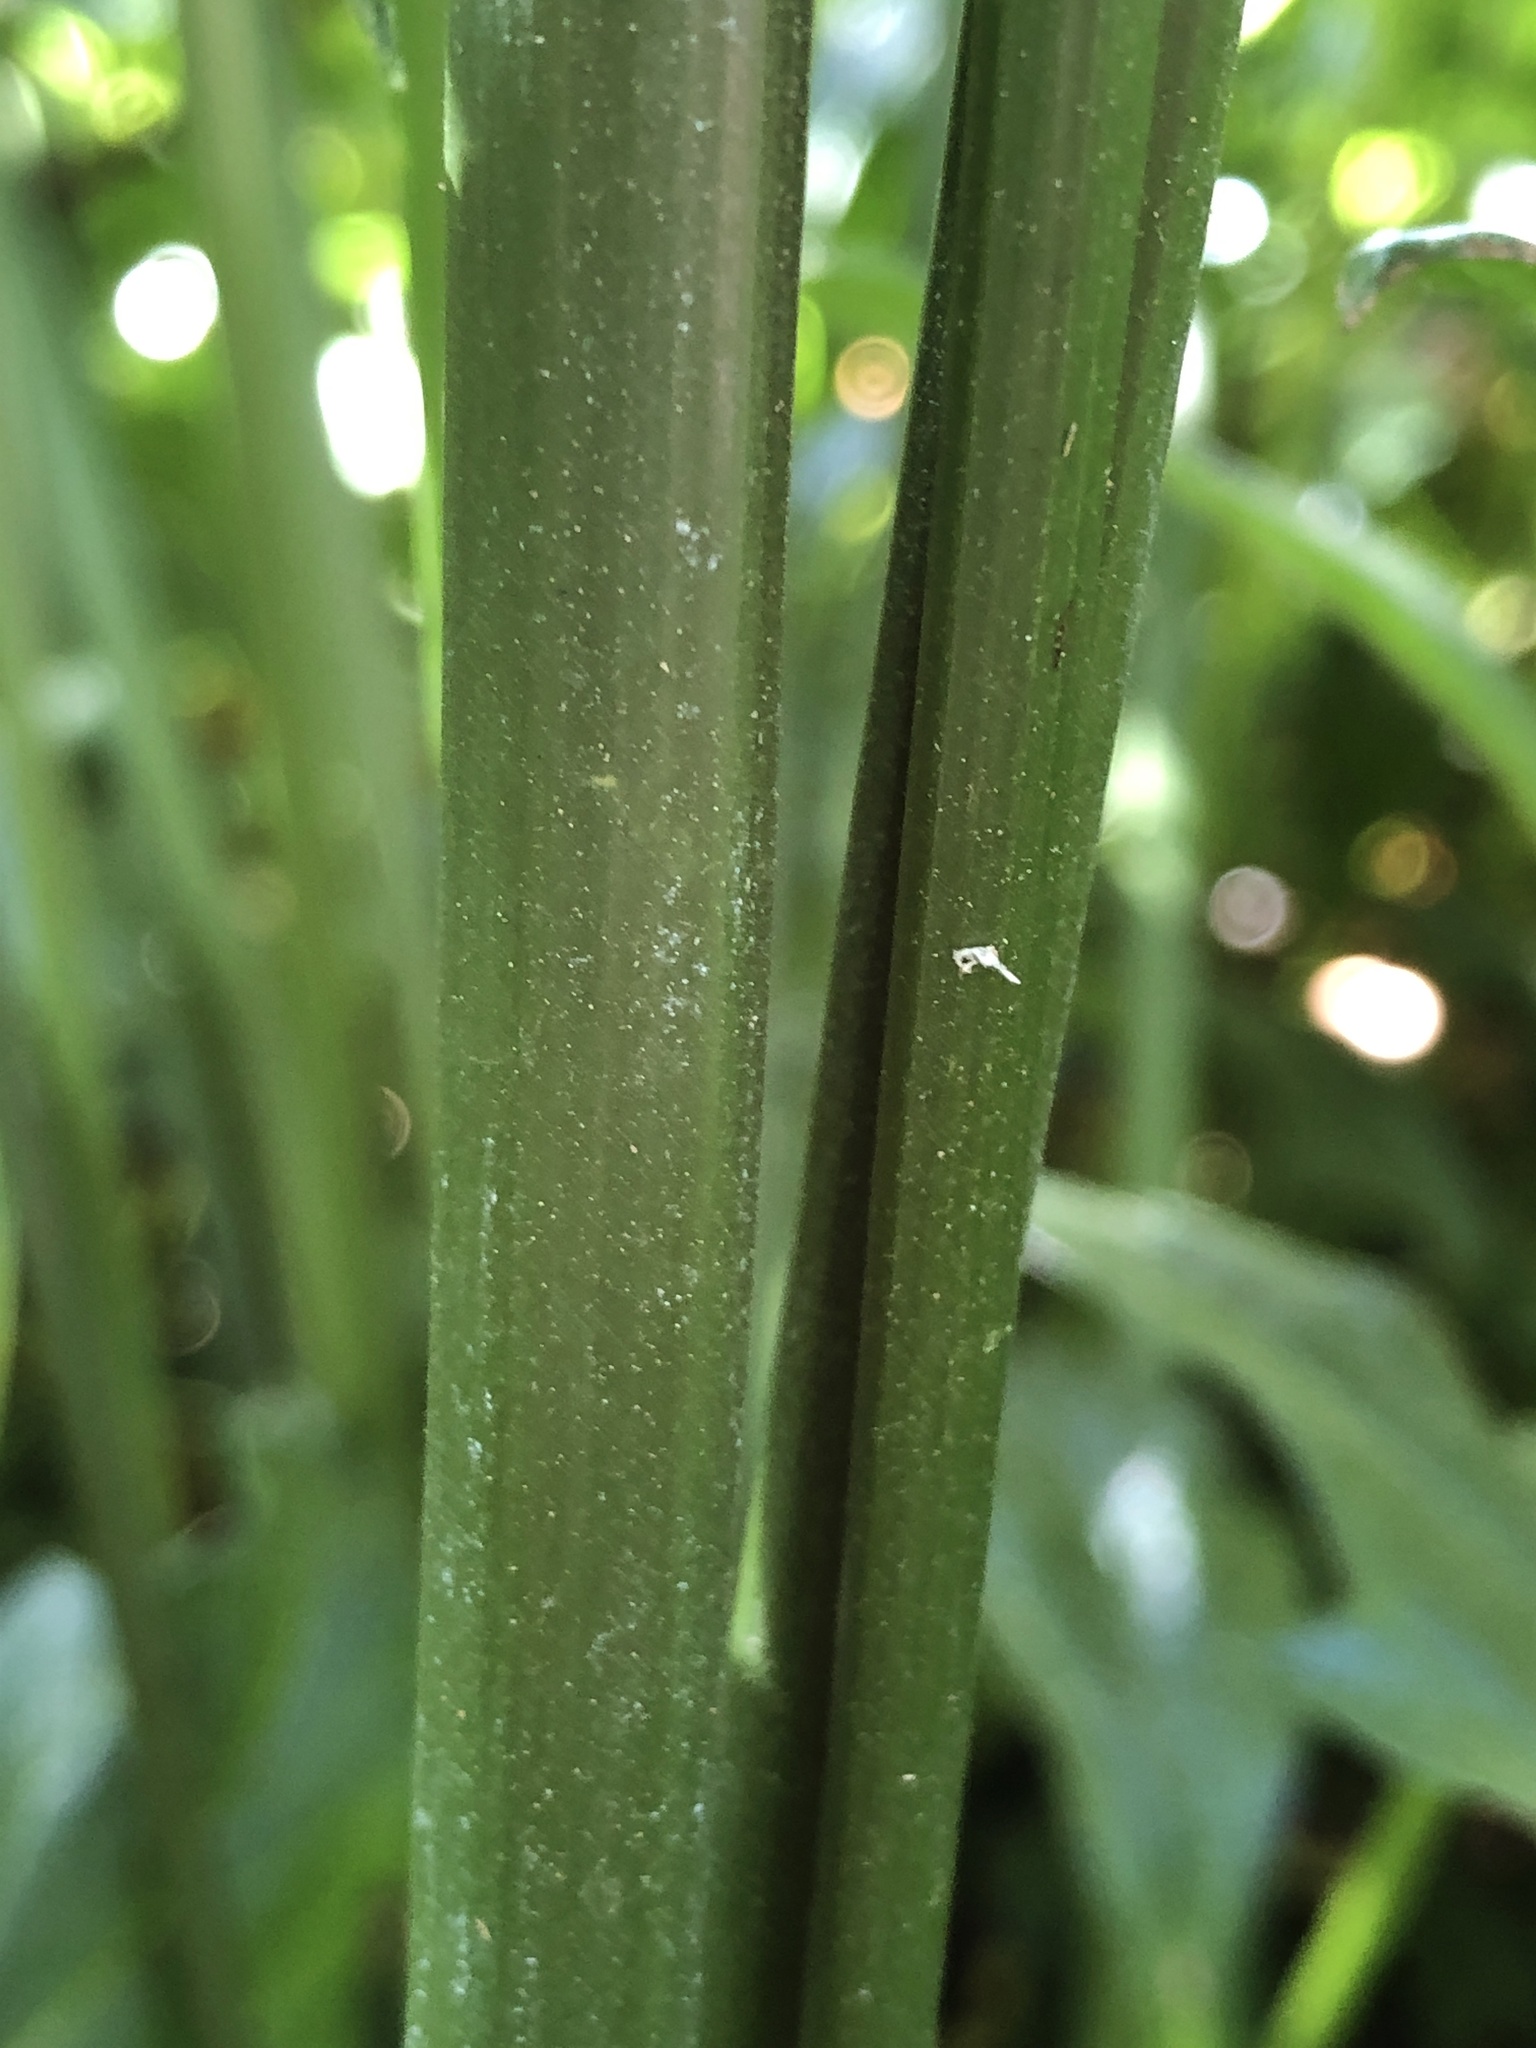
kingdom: Plantae
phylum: Tracheophyta
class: Liliopsida
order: Poales
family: Cyperaceae
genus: Cyperus
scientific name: Cyperus alternifolius
